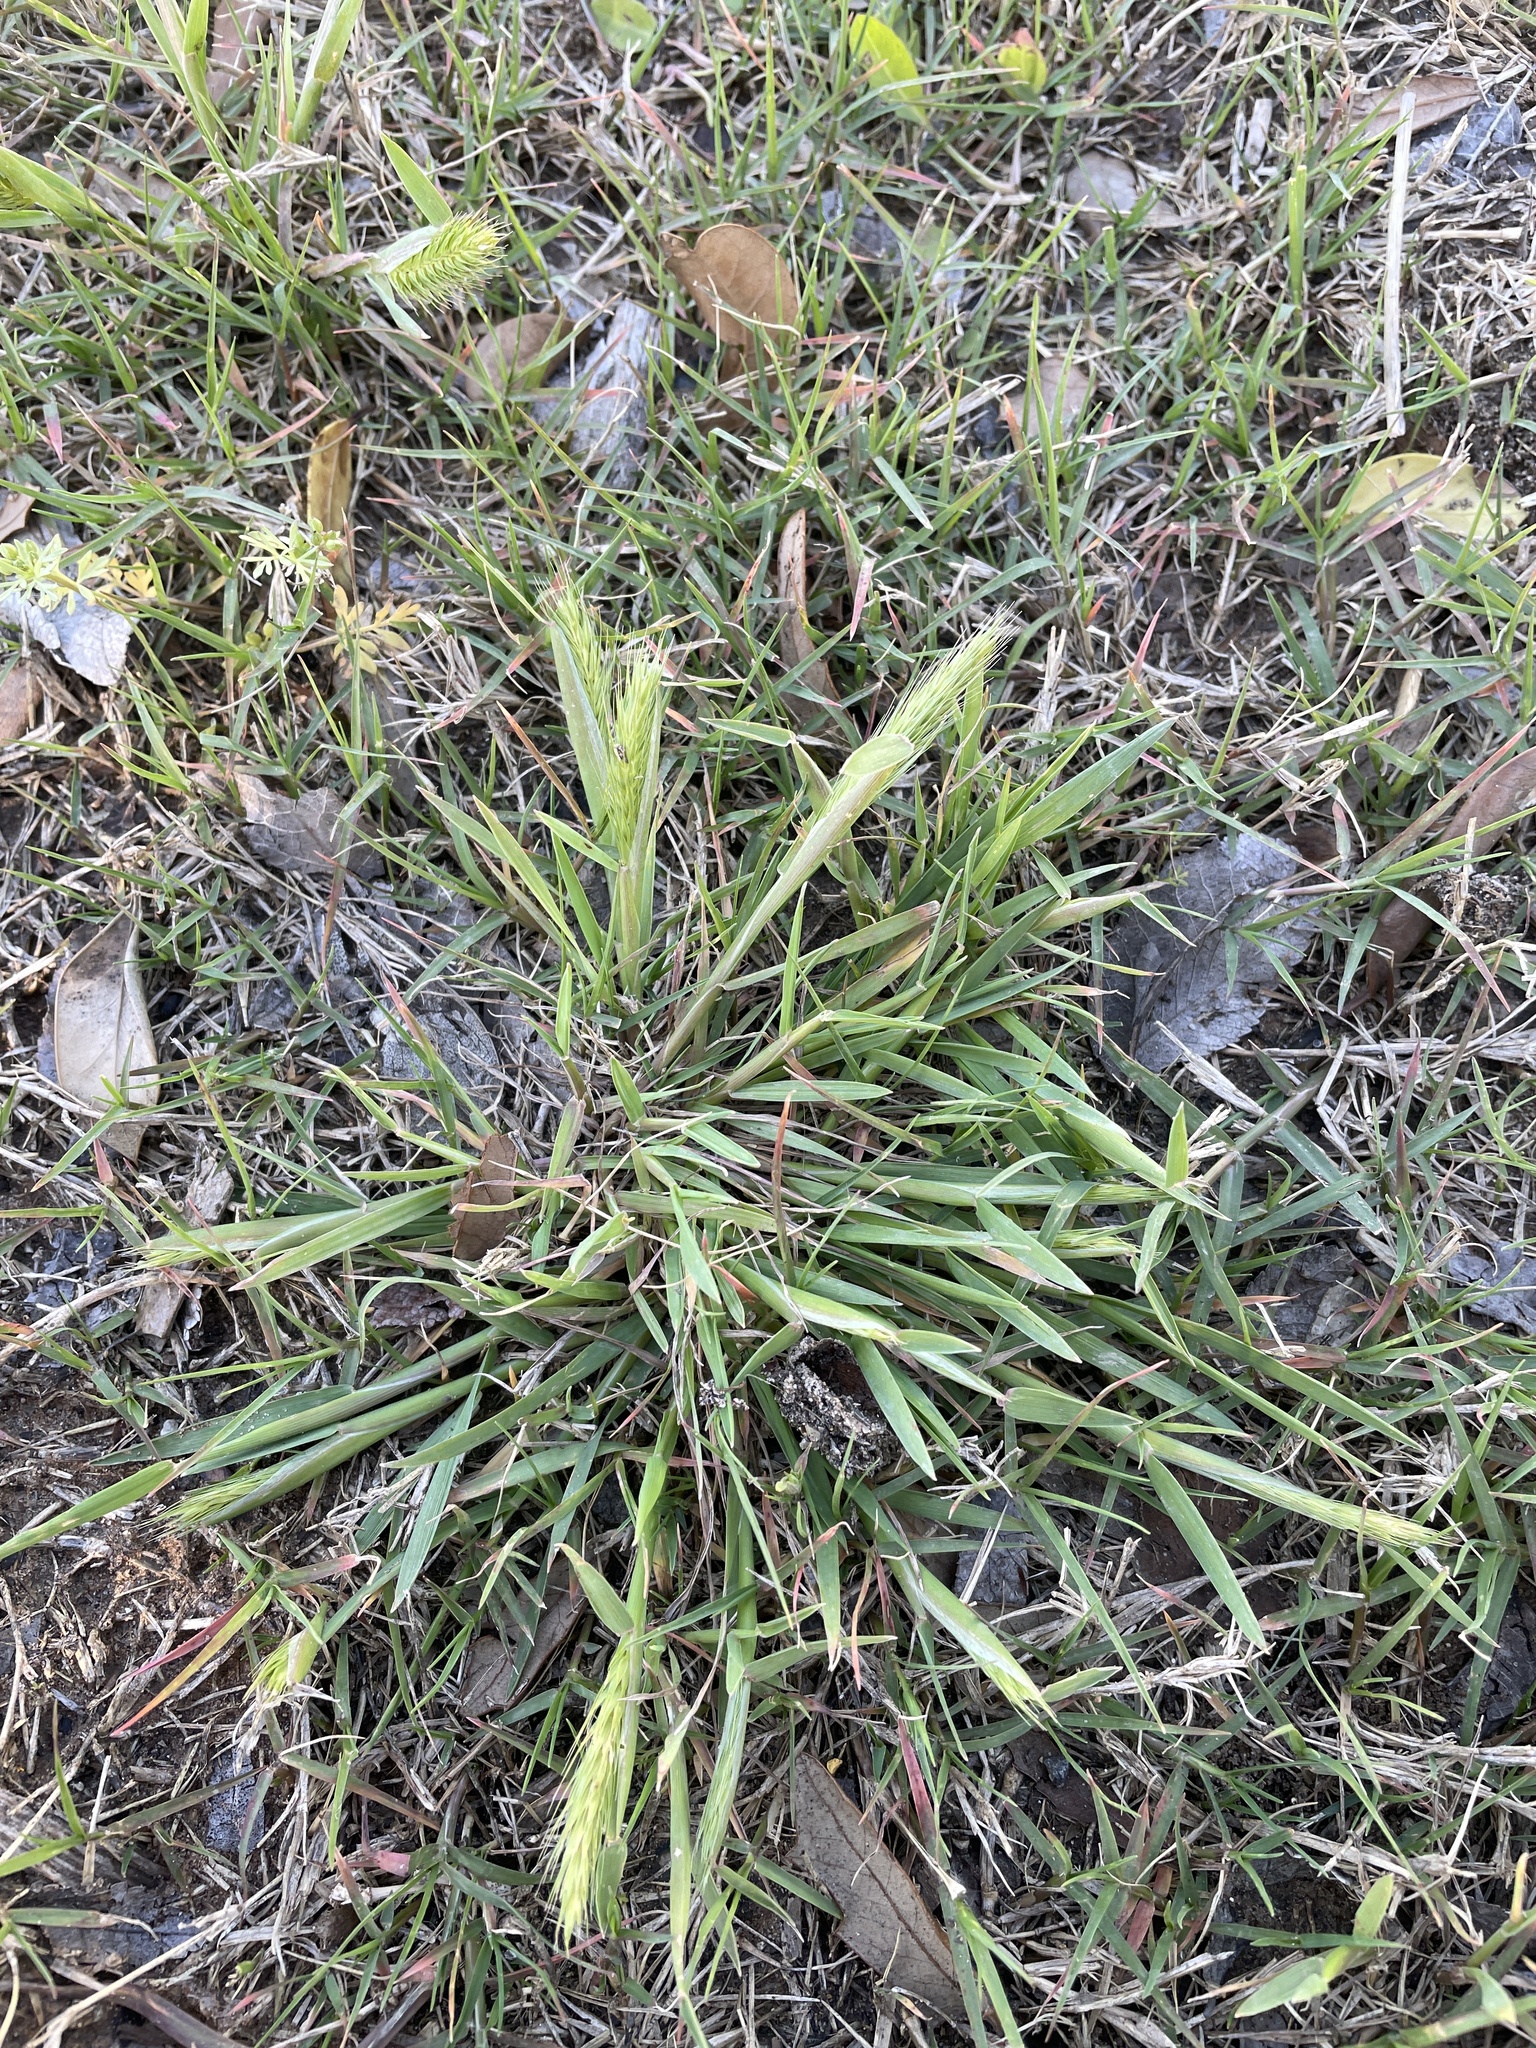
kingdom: Plantae
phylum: Tracheophyta
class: Liliopsida
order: Poales
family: Poaceae
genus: Hordeum
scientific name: Hordeum pusillum
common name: Little barley
